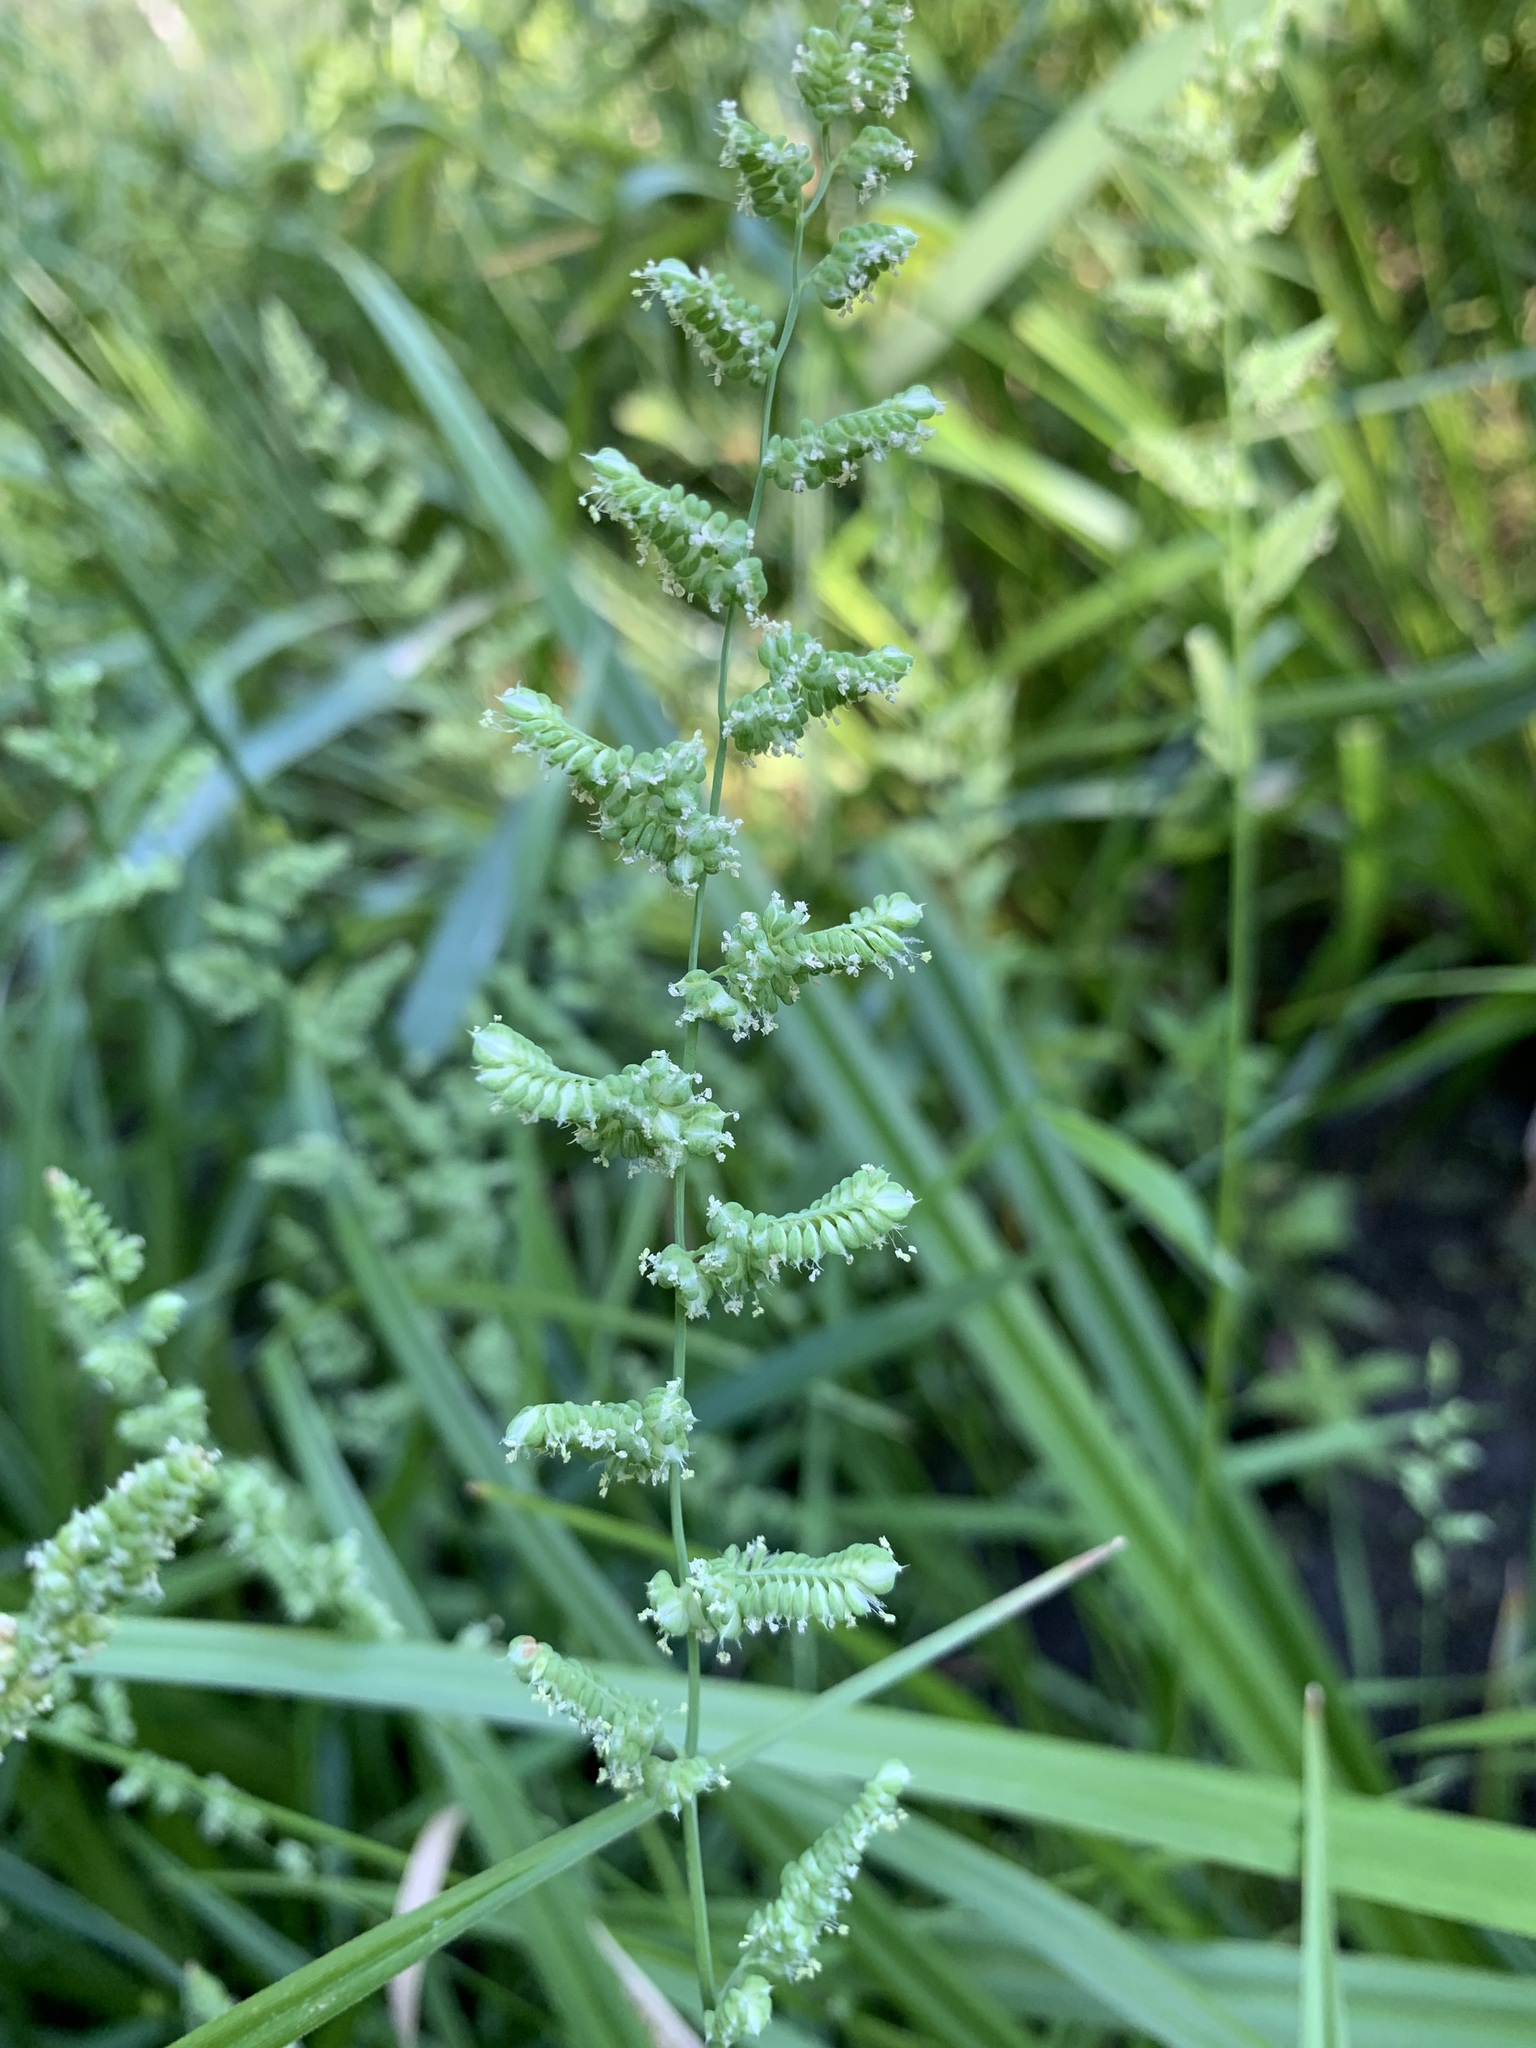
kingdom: Plantae
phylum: Tracheophyta
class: Liliopsida
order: Poales
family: Poaceae
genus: Beckmannia
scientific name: Beckmannia syzigachne
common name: American slough-grass
